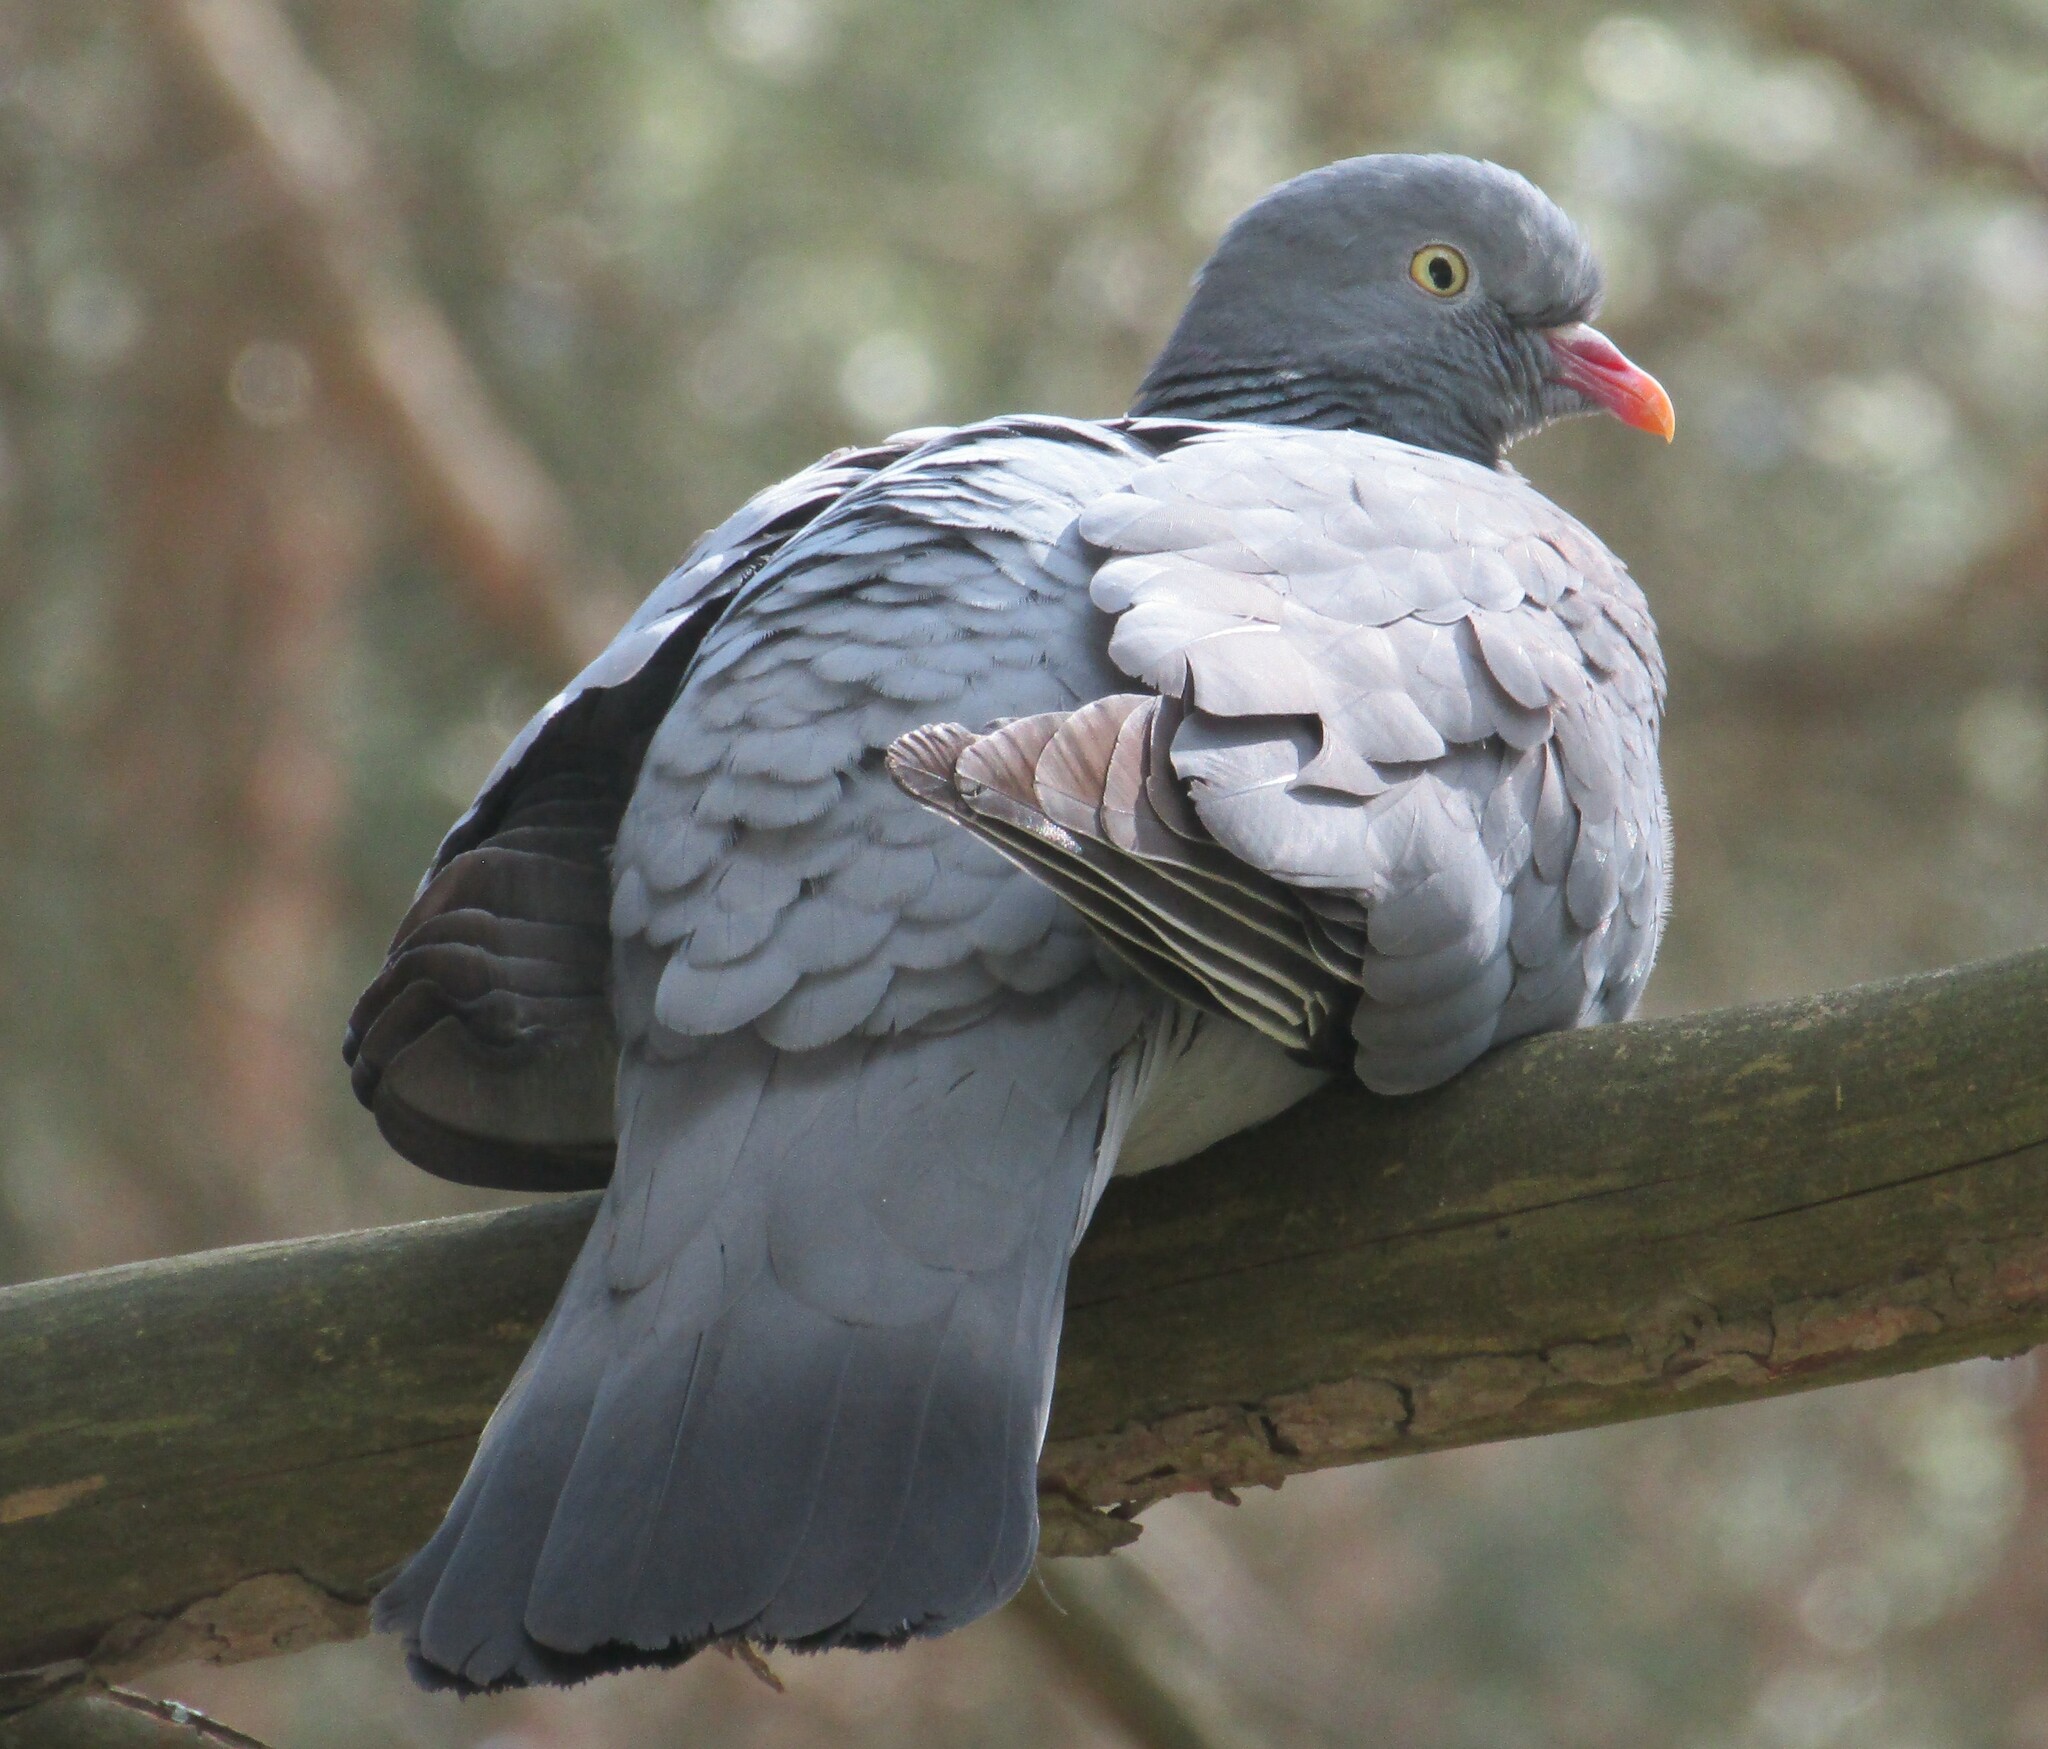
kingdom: Animalia
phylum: Chordata
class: Aves
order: Columbiformes
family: Columbidae
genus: Columba
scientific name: Columba palumbus
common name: Common wood pigeon
